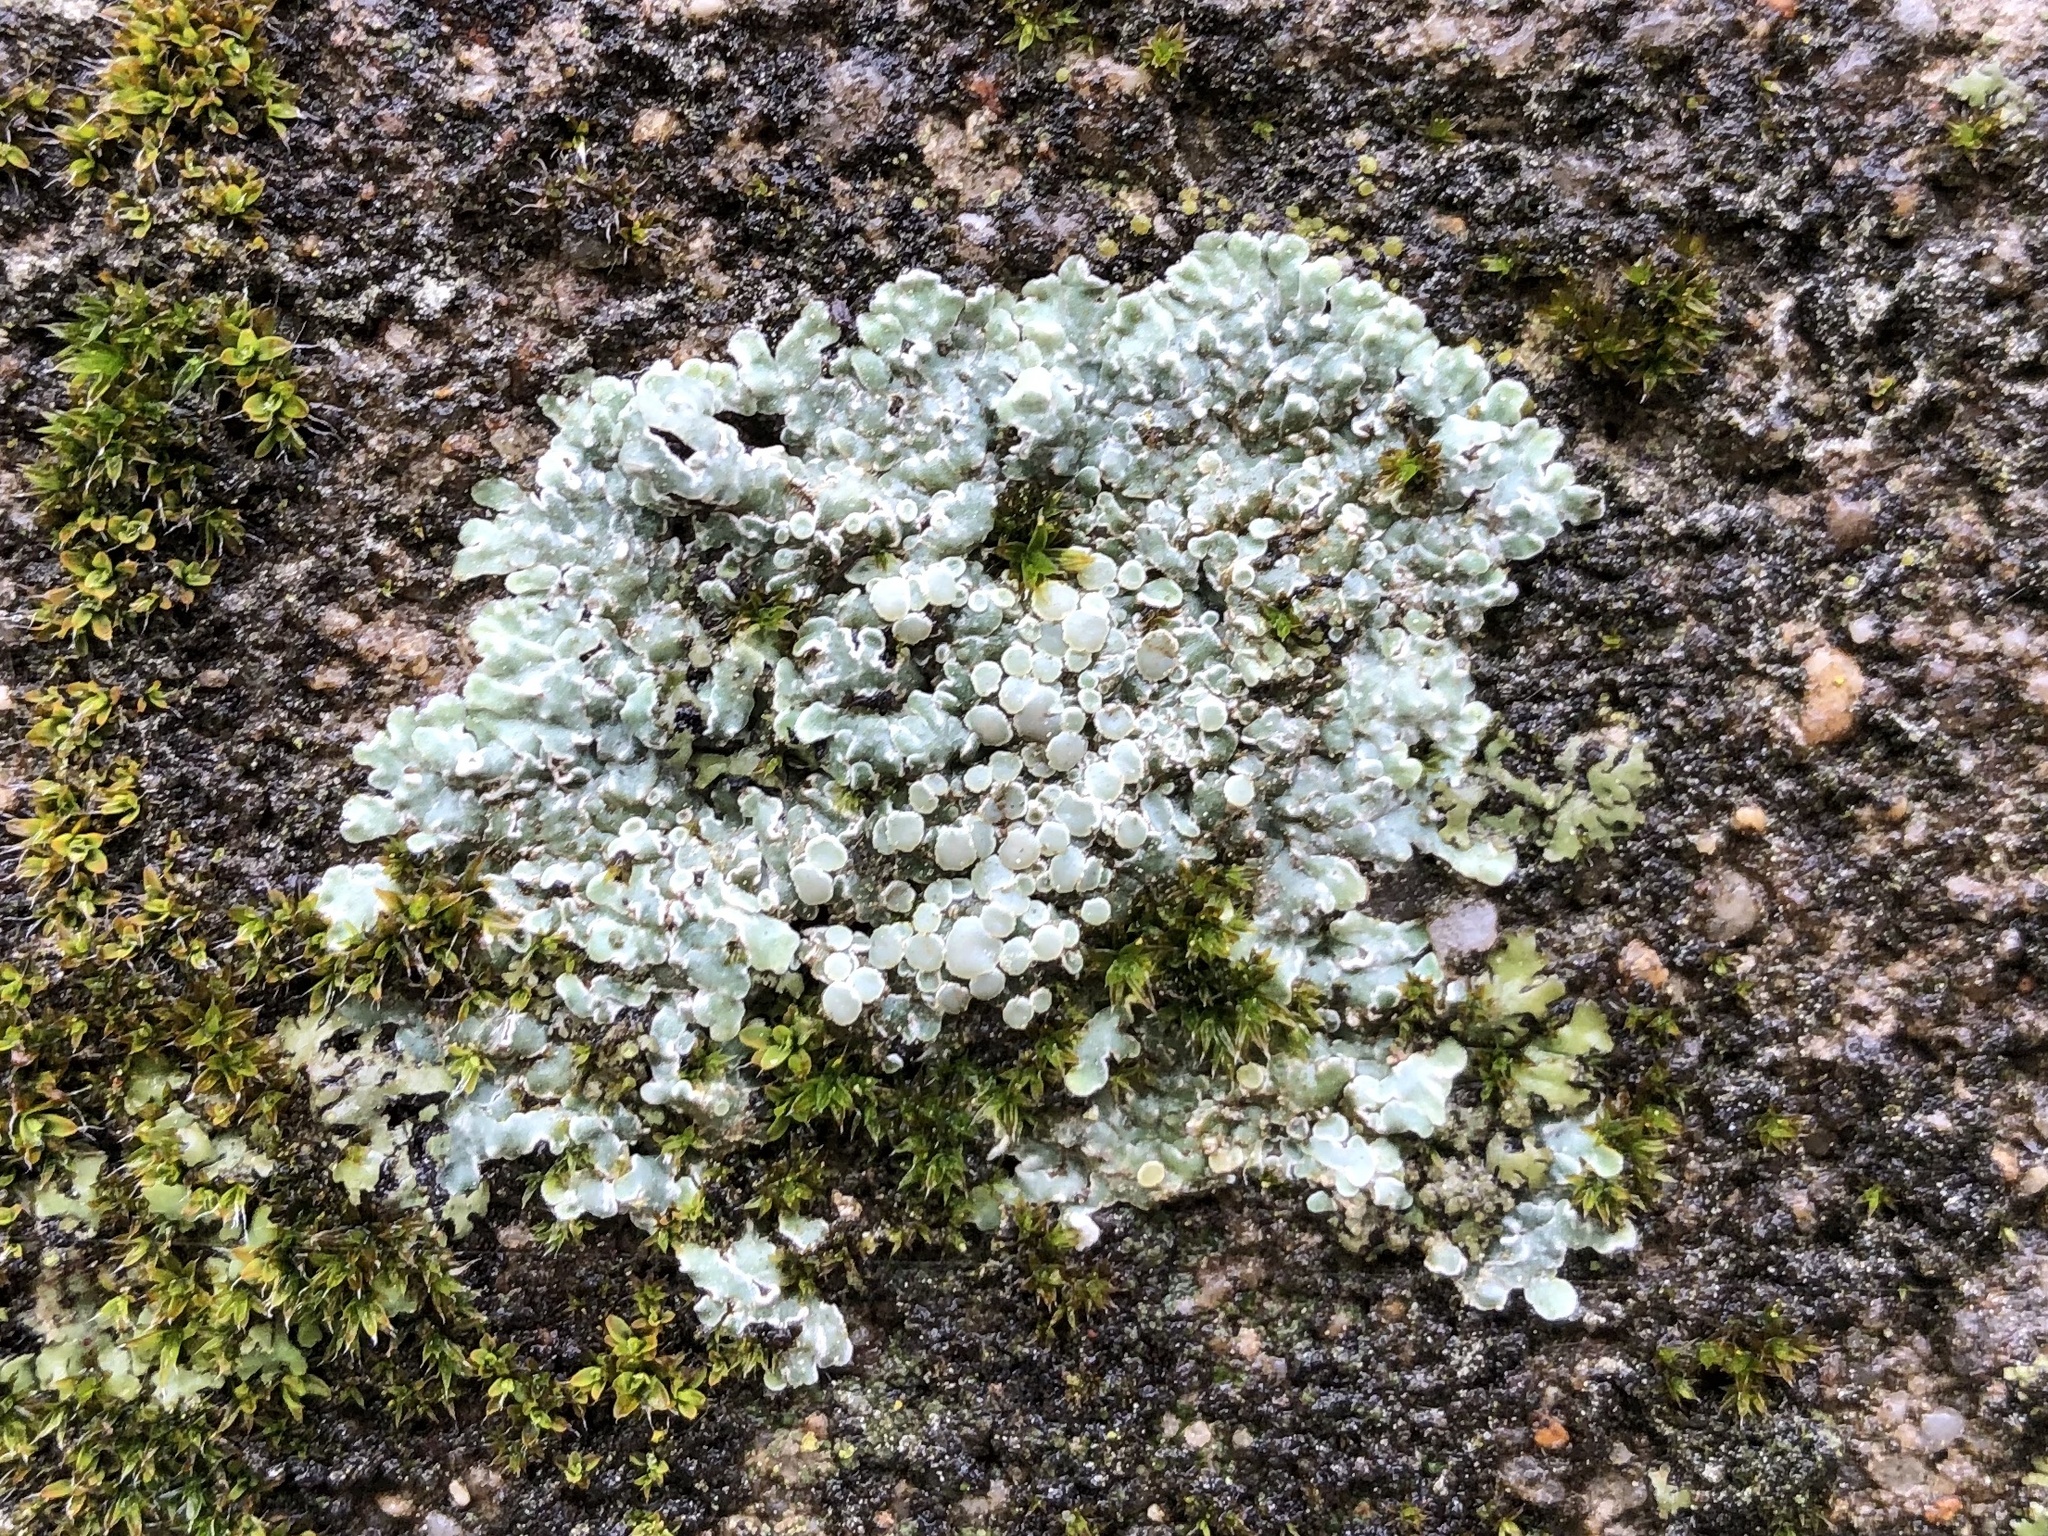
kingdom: Fungi
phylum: Ascomycota
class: Lecanoromycetes
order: Lecanorales
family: Lecanoraceae
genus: Protoparmeliopsis
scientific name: Protoparmeliopsis muralis
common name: Stonewall rim lichen
